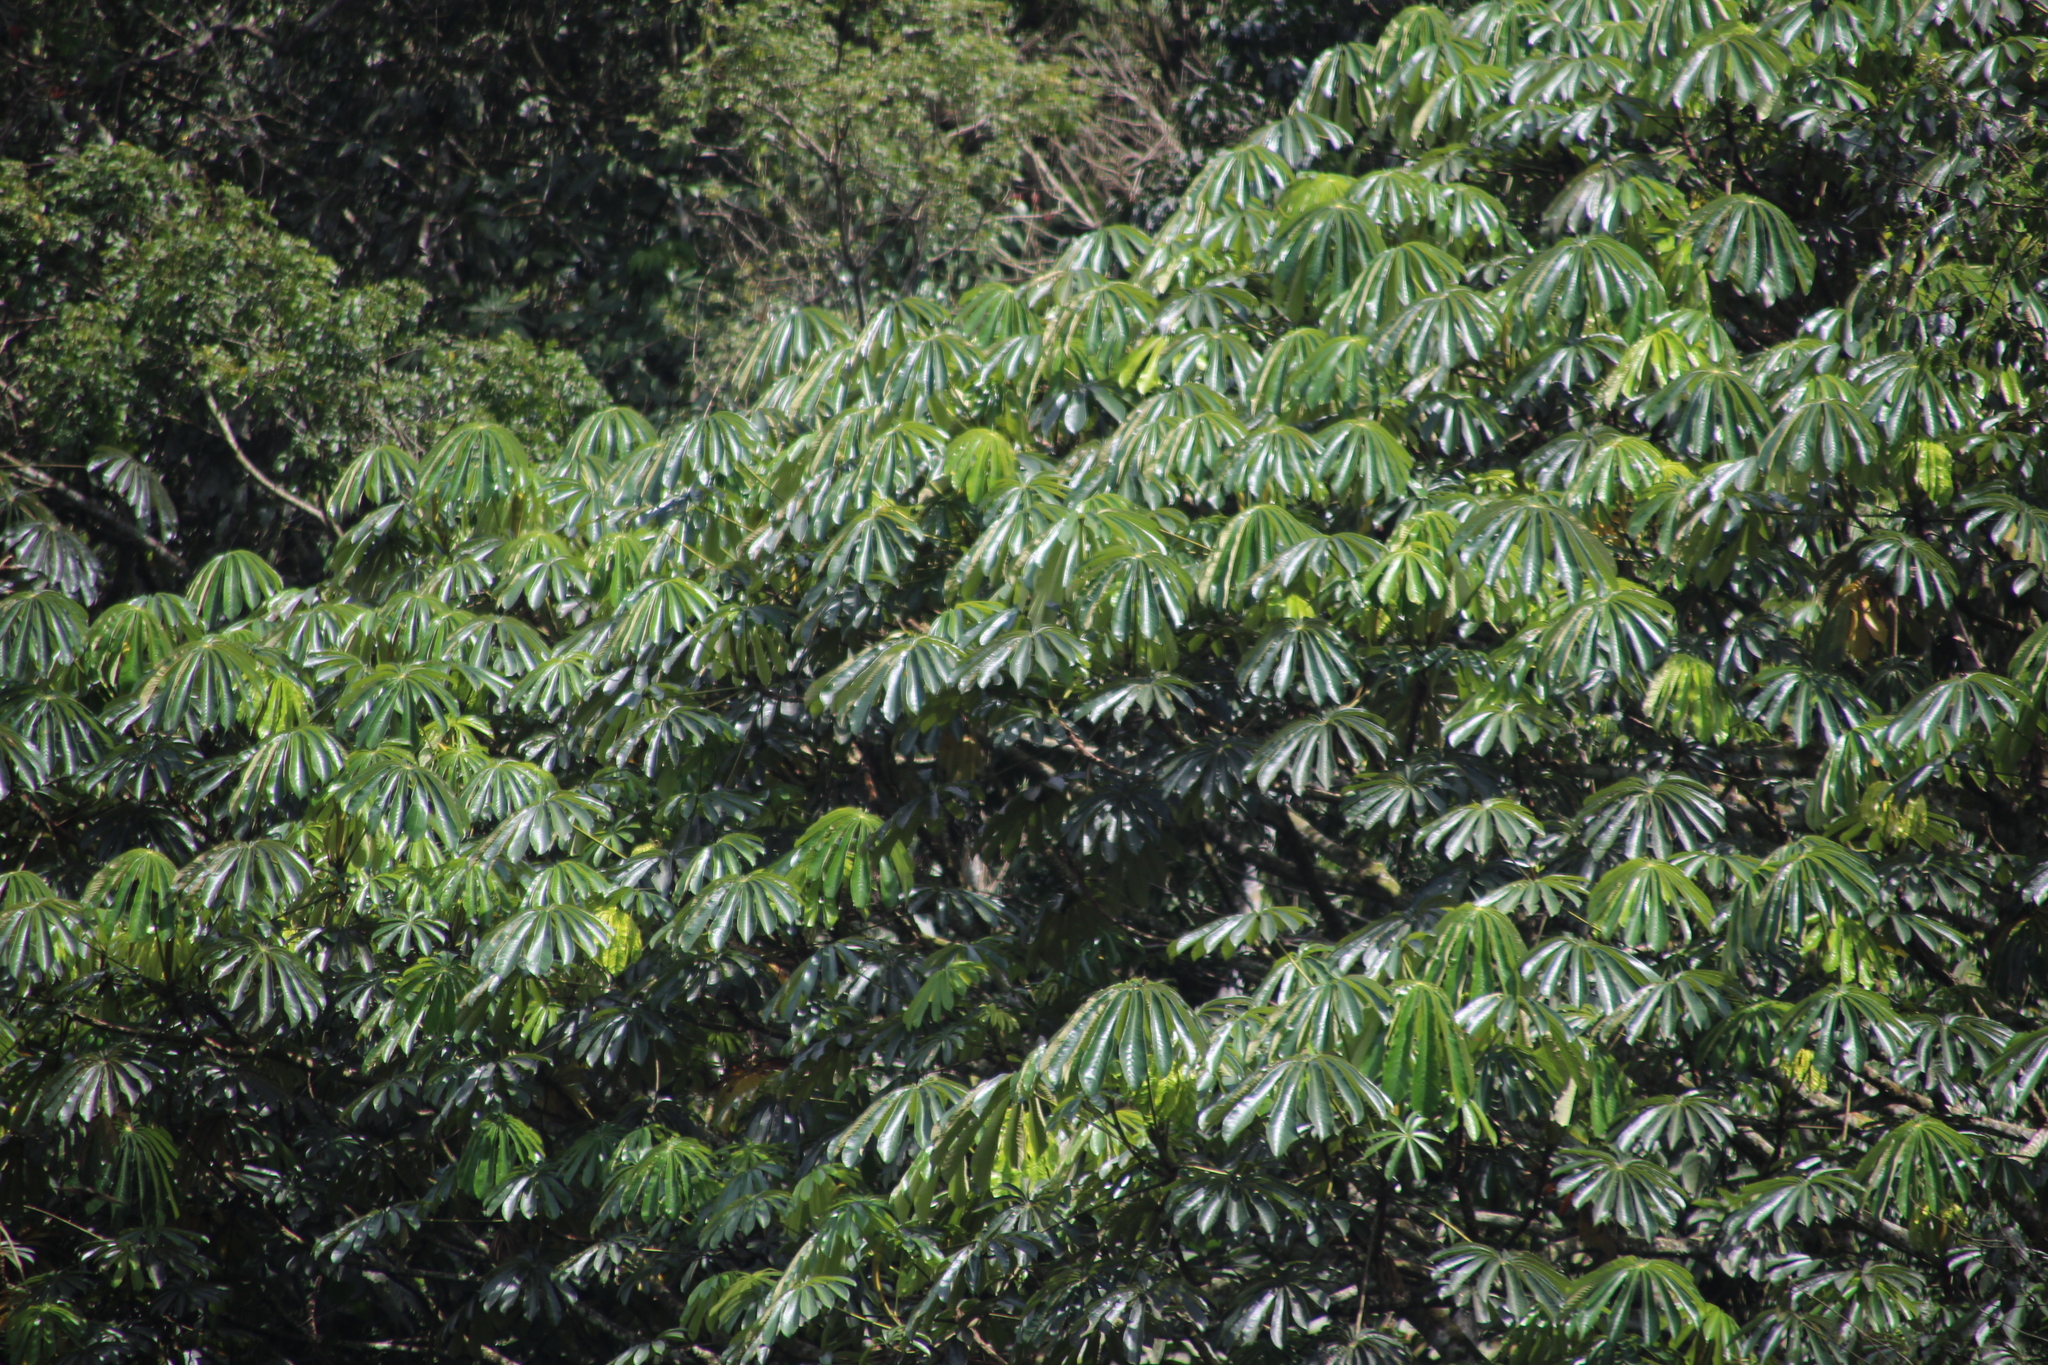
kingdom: Plantae
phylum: Tracheophyta
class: Magnoliopsida
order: Rosales
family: Urticaceae
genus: Musanga
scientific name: Musanga cecropioides
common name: African corkwood
